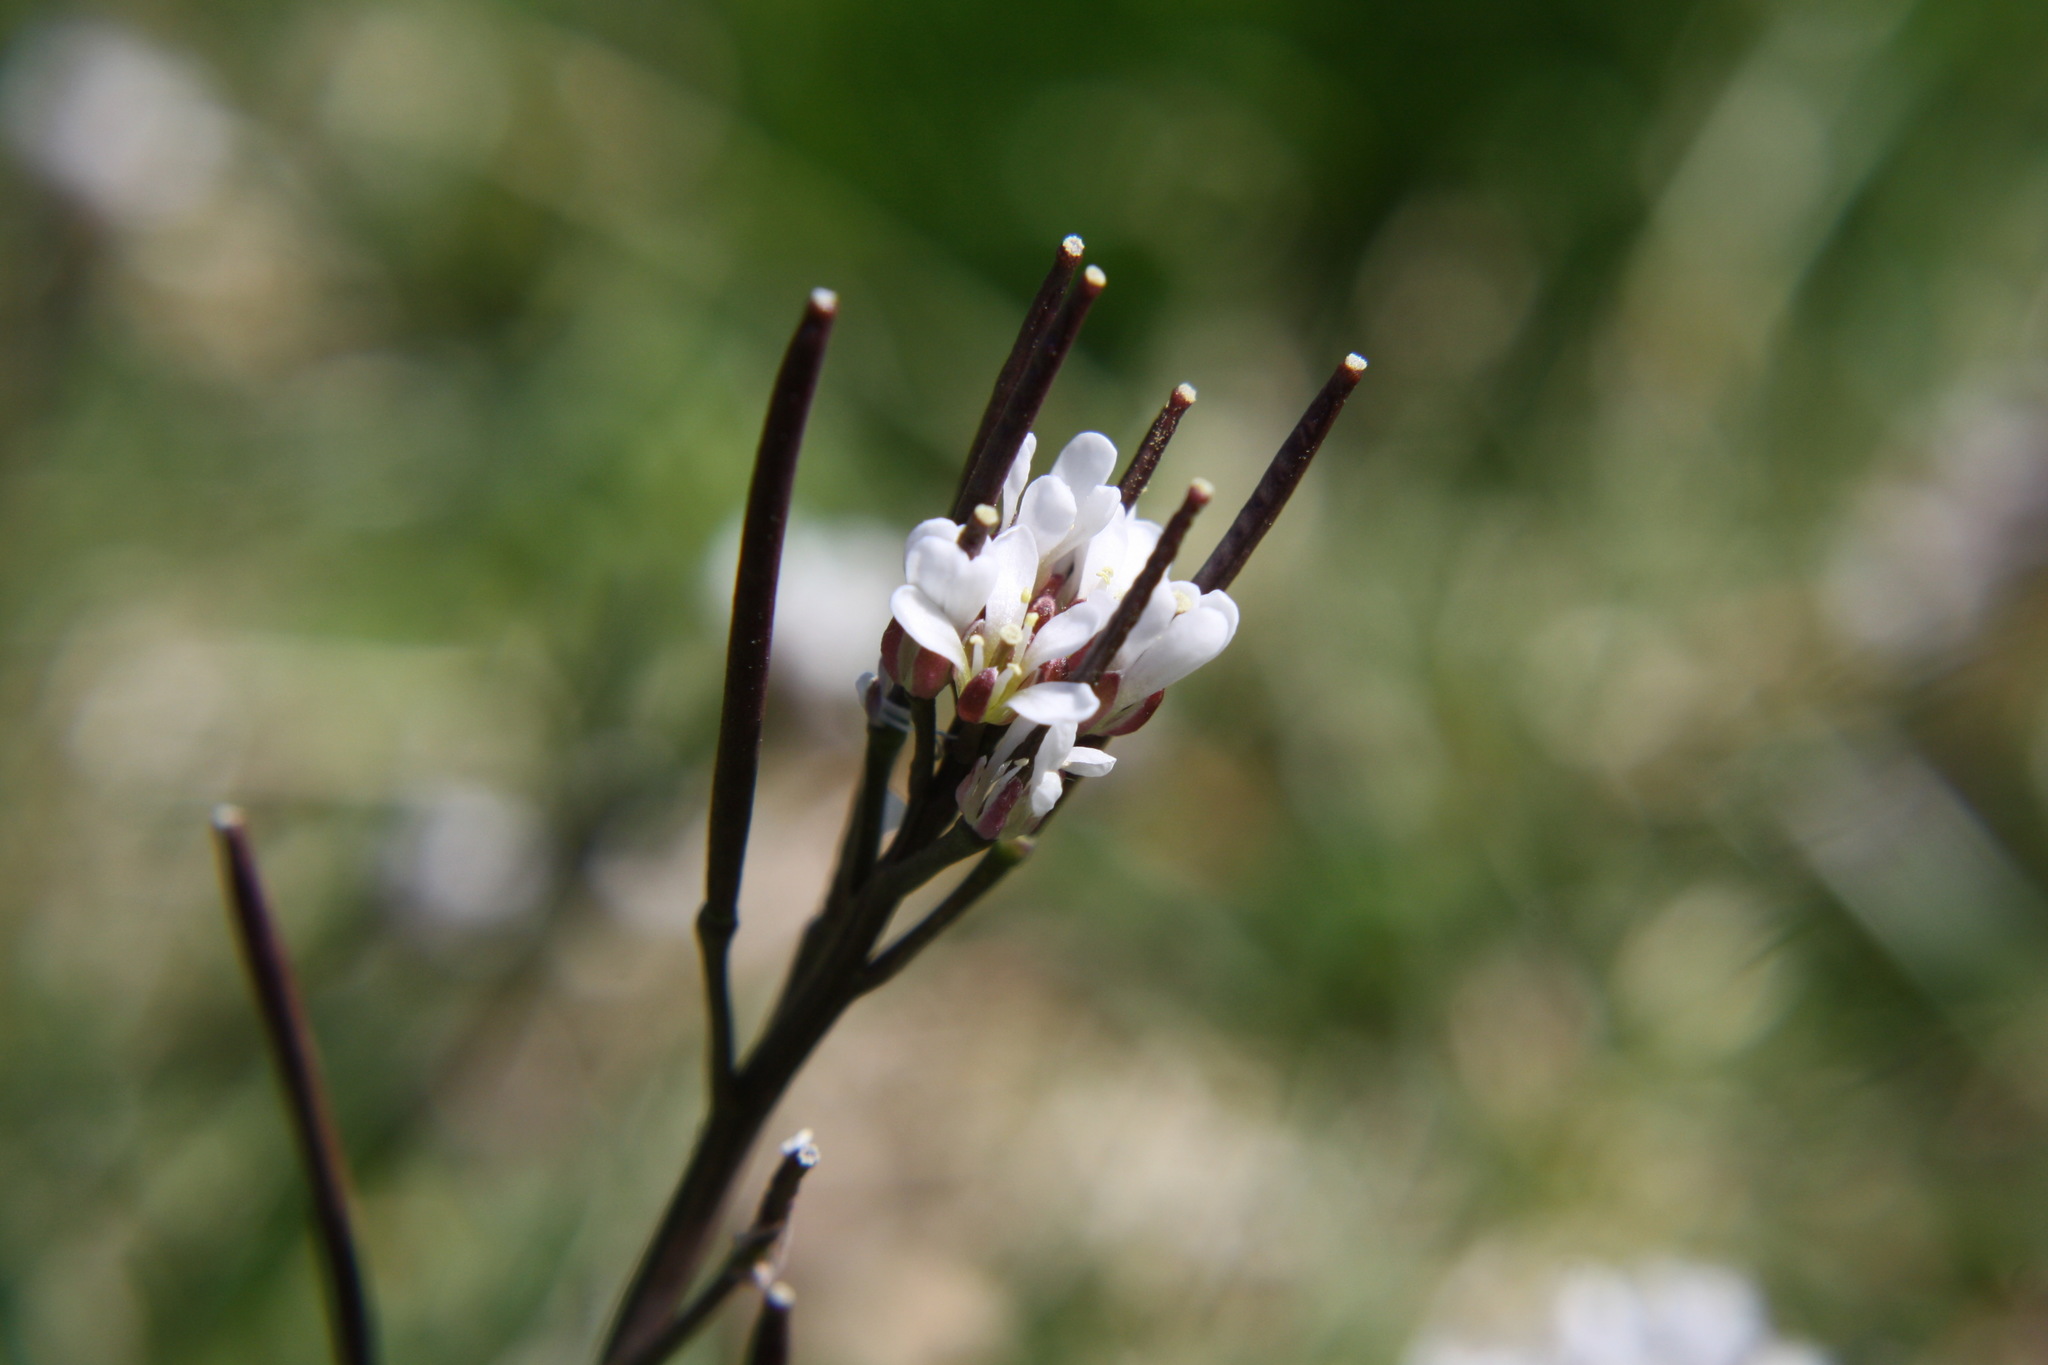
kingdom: Plantae
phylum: Tracheophyta
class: Magnoliopsida
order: Brassicales
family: Brassicaceae
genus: Cardamine
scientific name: Cardamine hirsuta
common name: Hairy bittercress
